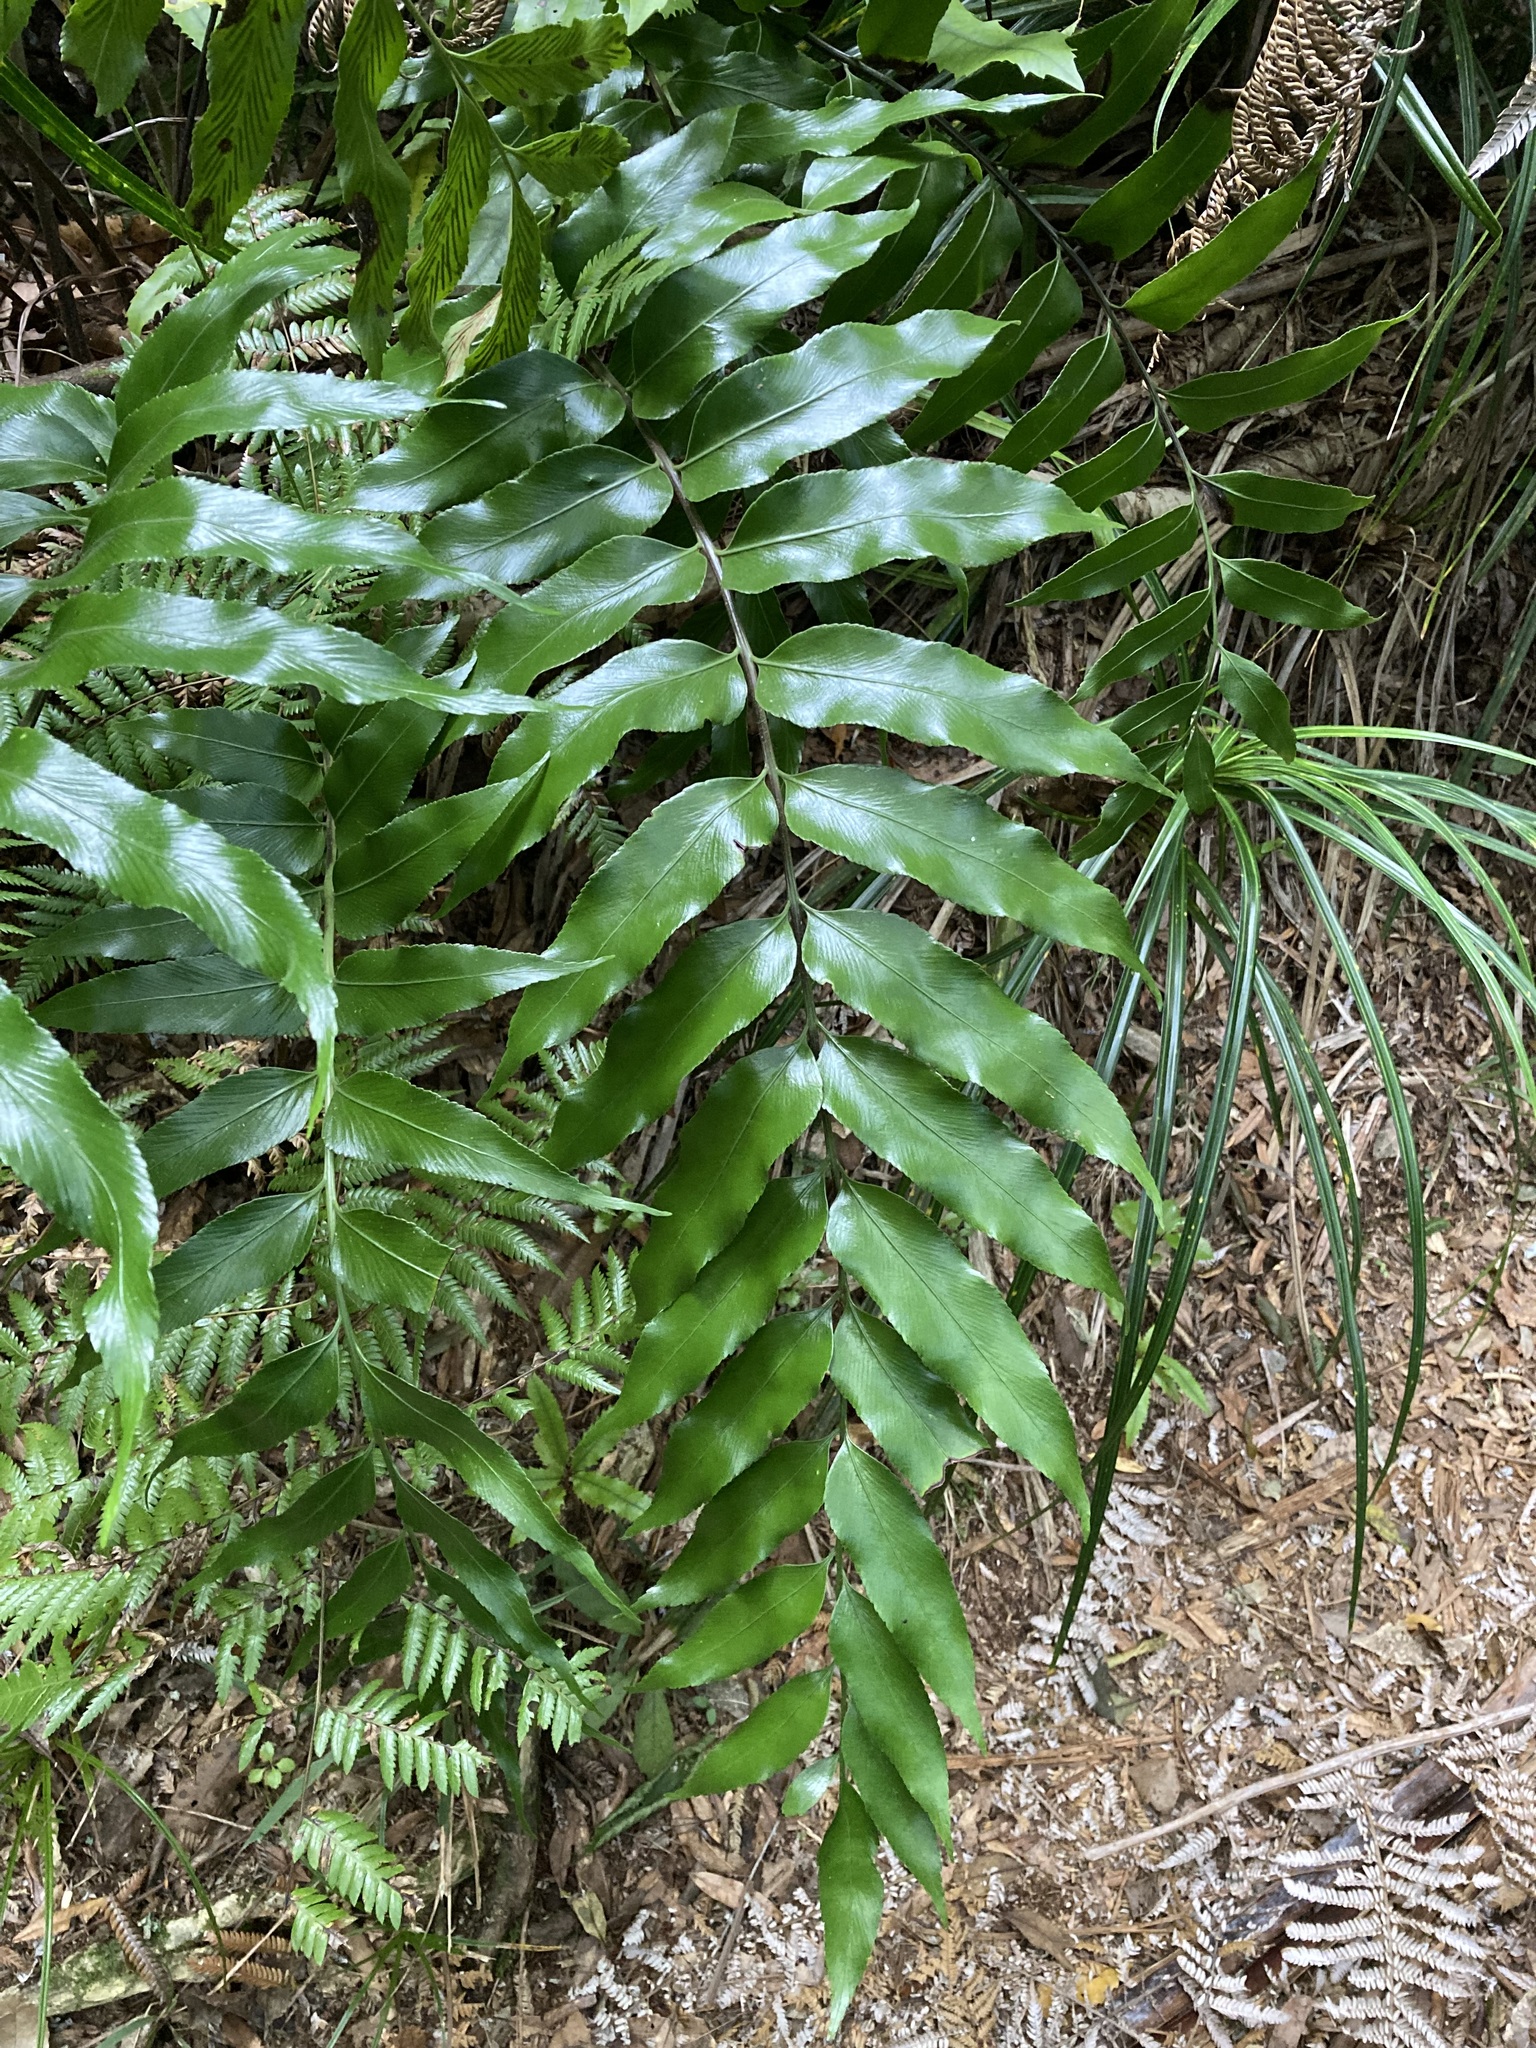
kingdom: Plantae
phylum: Tracheophyta
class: Polypodiopsida
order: Polypodiales
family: Aspleniaceae
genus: Asplenium
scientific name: Asplenium oblongifolium
